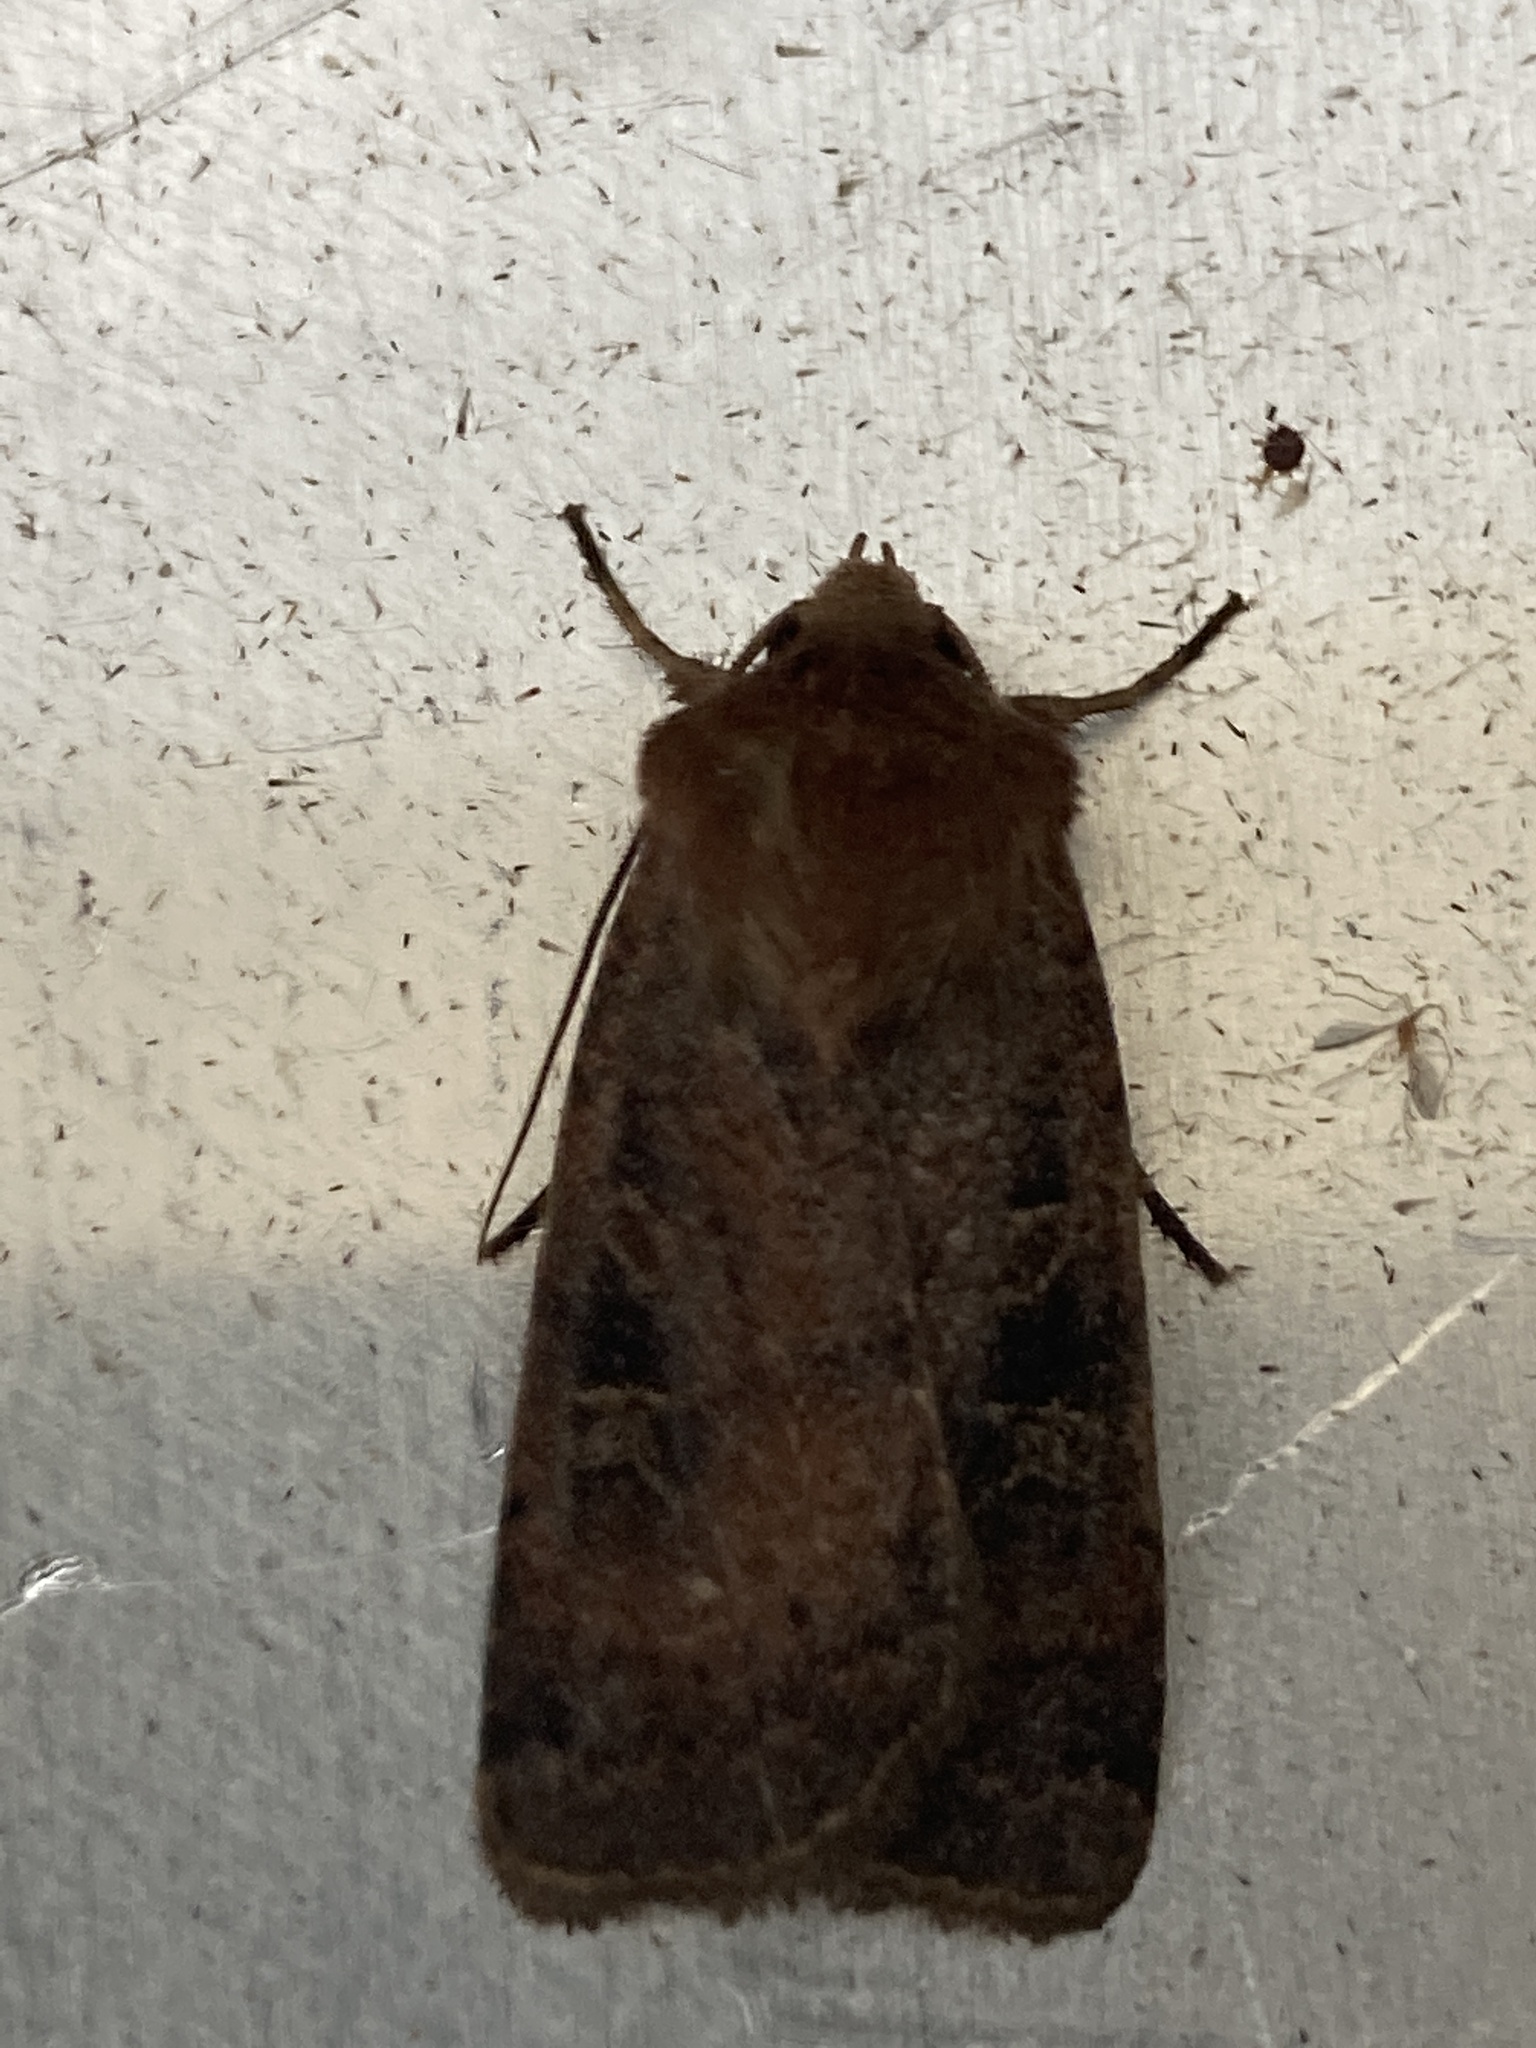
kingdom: Animalia
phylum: Arthropoda
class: Insecta
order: Lepidoptera
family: Noctuidae
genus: Xestia
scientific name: Xestia xanthographa
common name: Square-spot rustic
